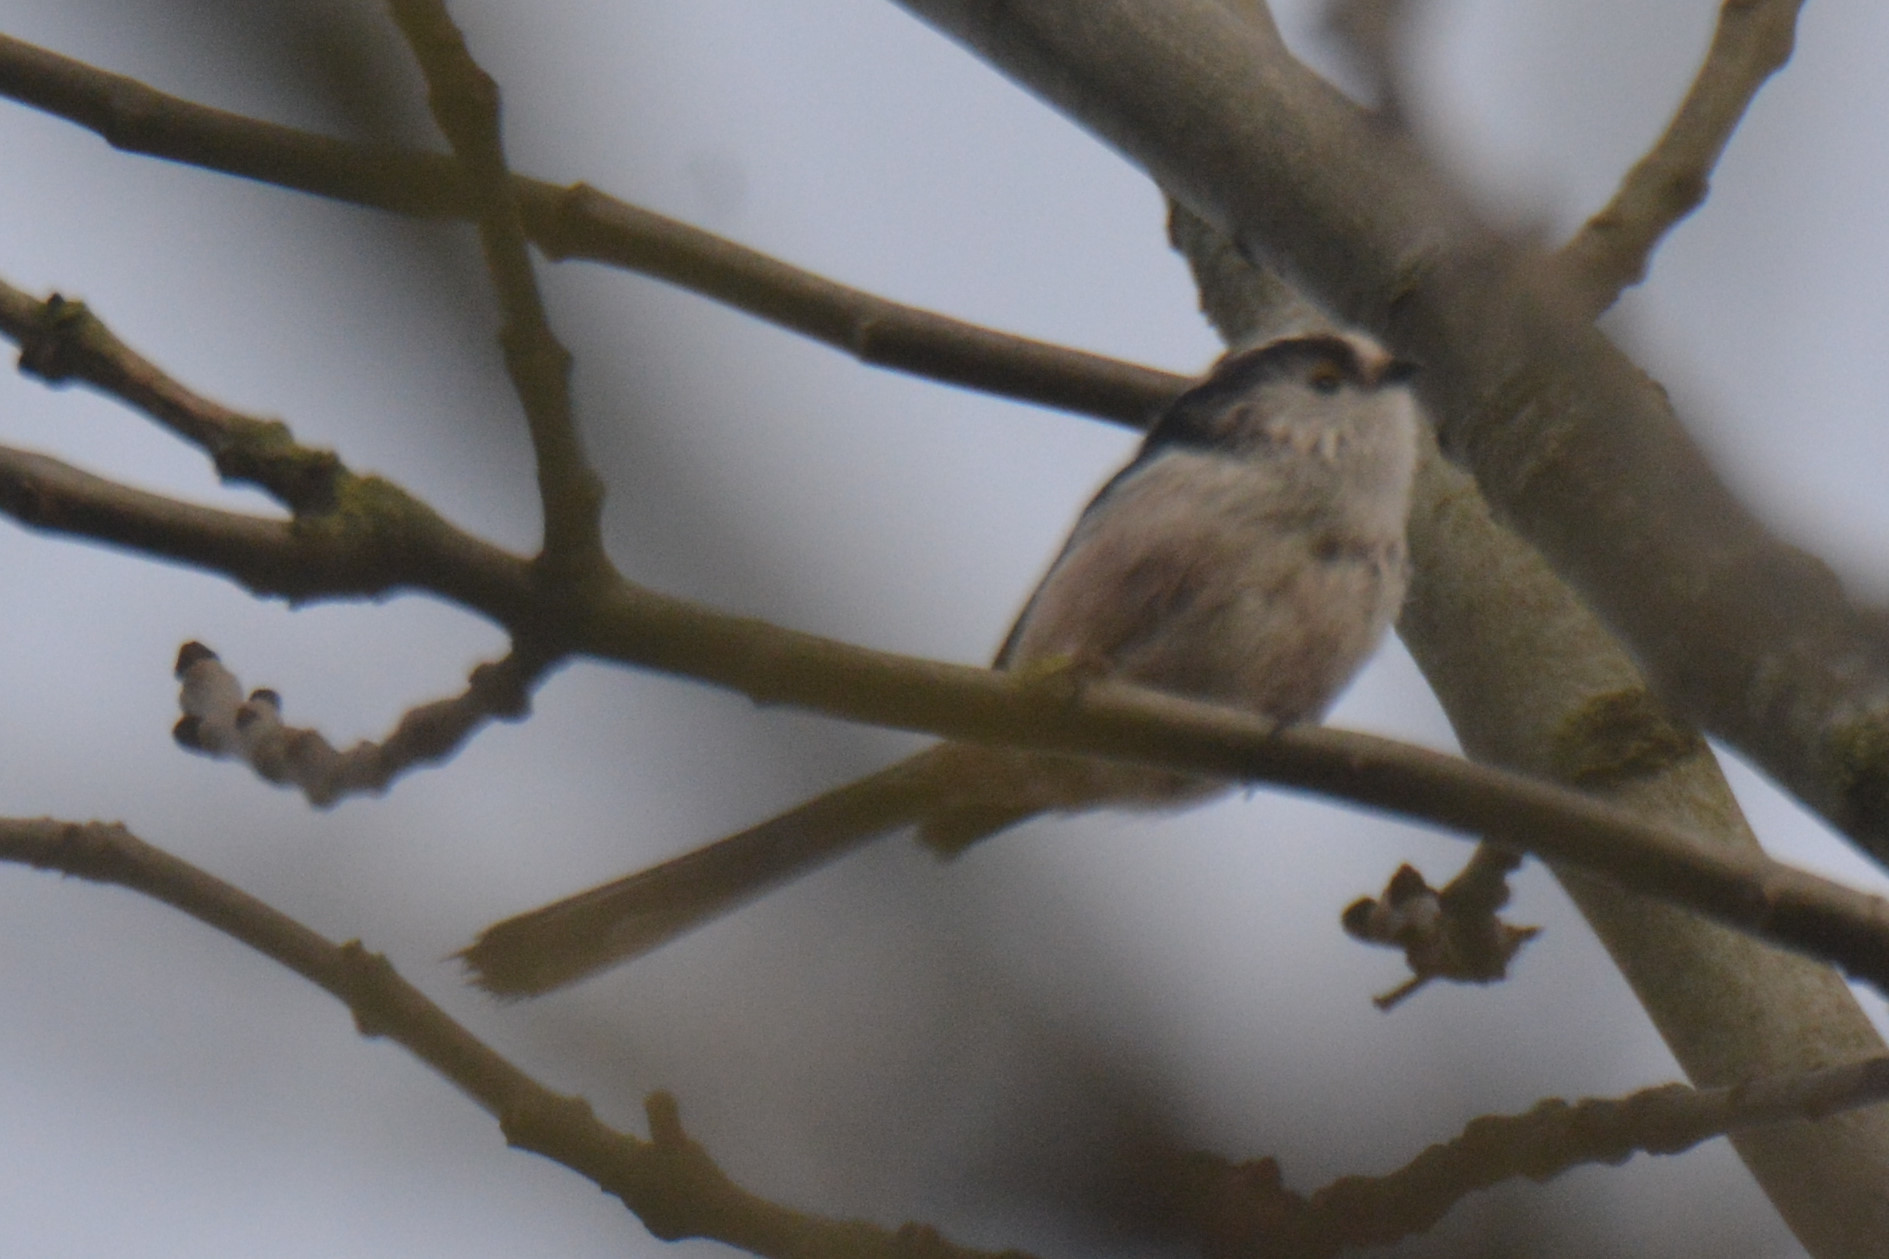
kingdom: Animalia
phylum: Chordata
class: Aves
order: Passeriformes
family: Aegithalidae
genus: Aegithalos
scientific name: Aegithalos caudatus
